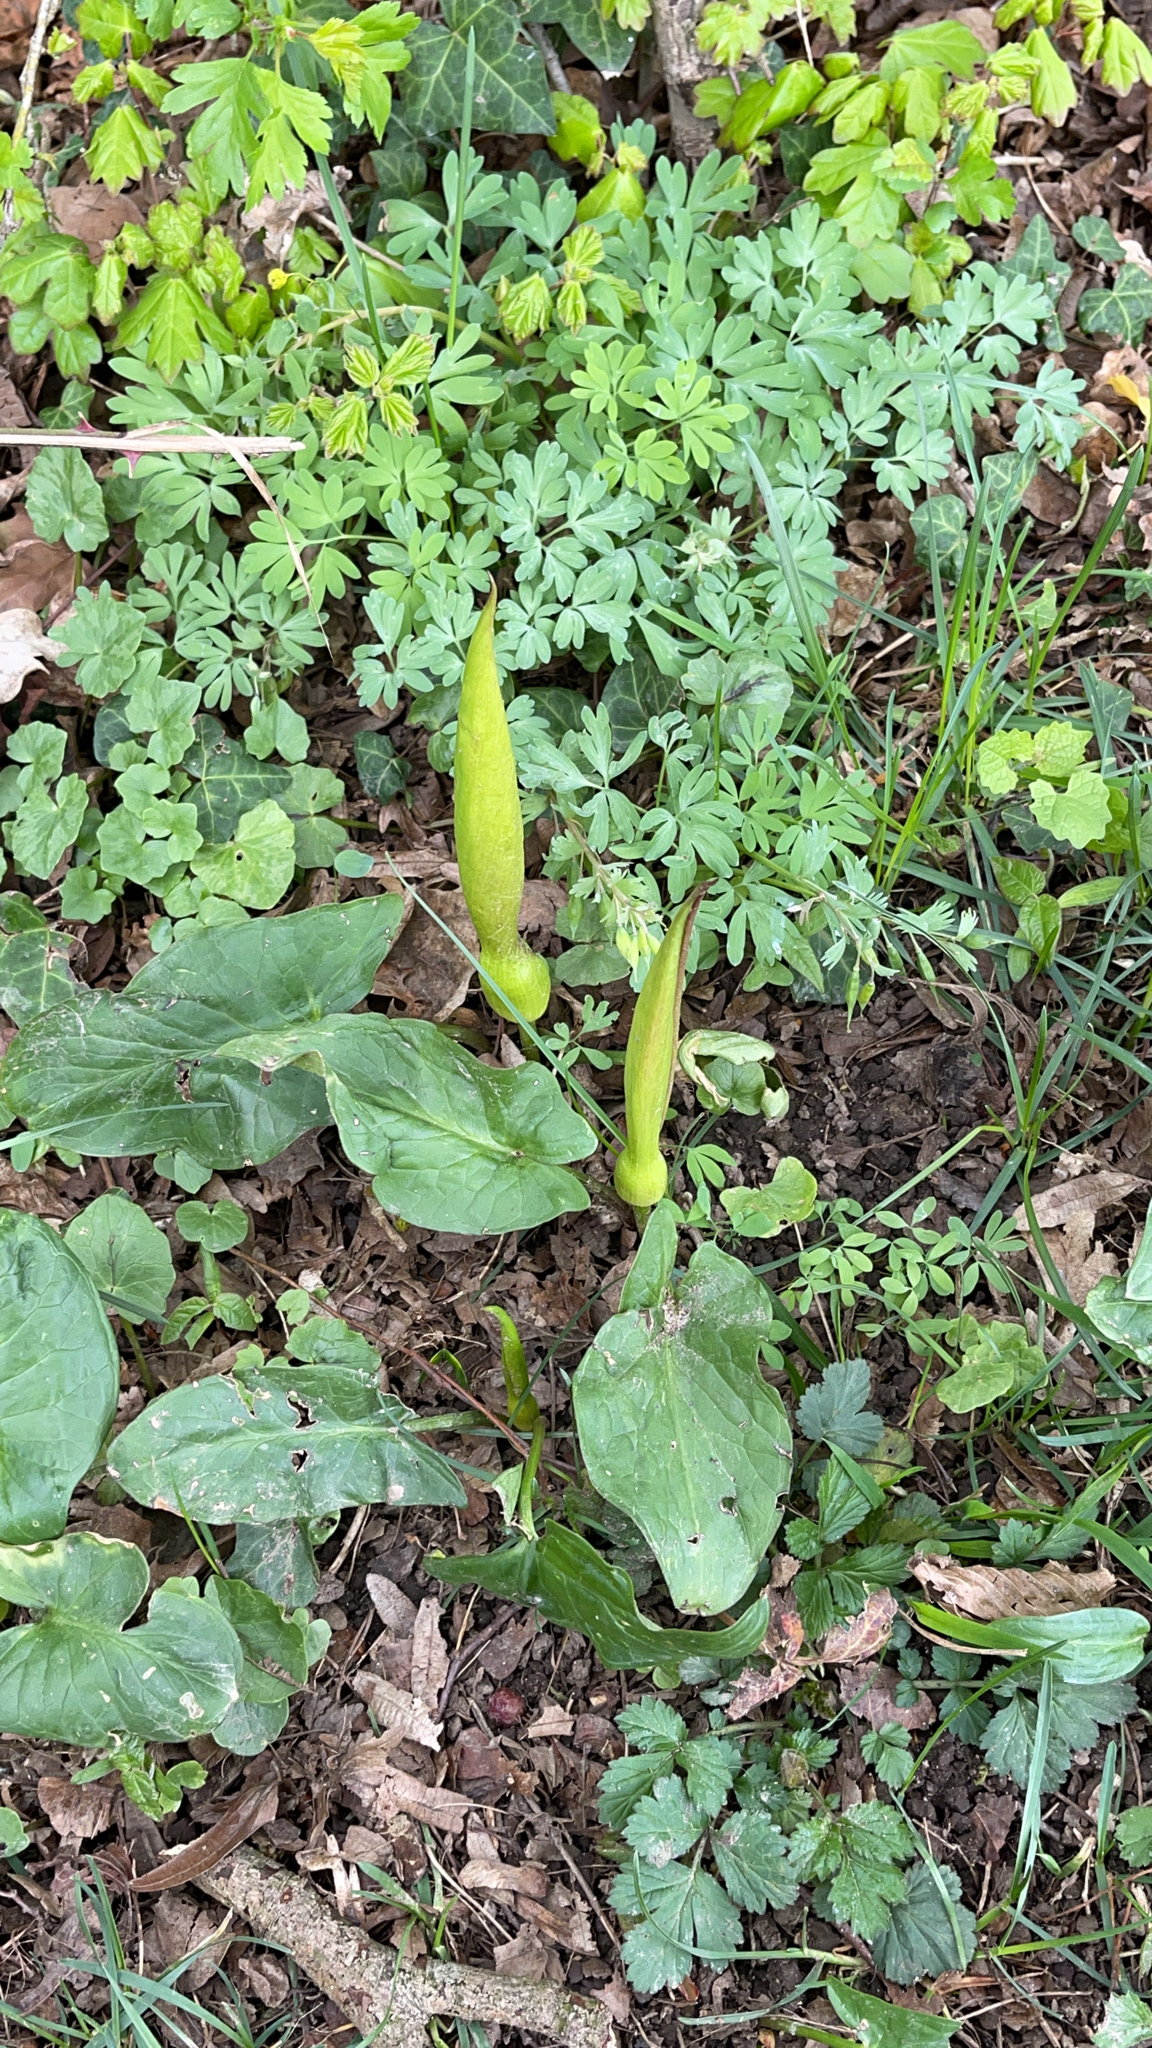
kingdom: Plantae
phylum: Tracheophyta
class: Liliopsida
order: Alismatales
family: Araceae
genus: Arum
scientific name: Arum maculatum
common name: Lords-and-ladies
